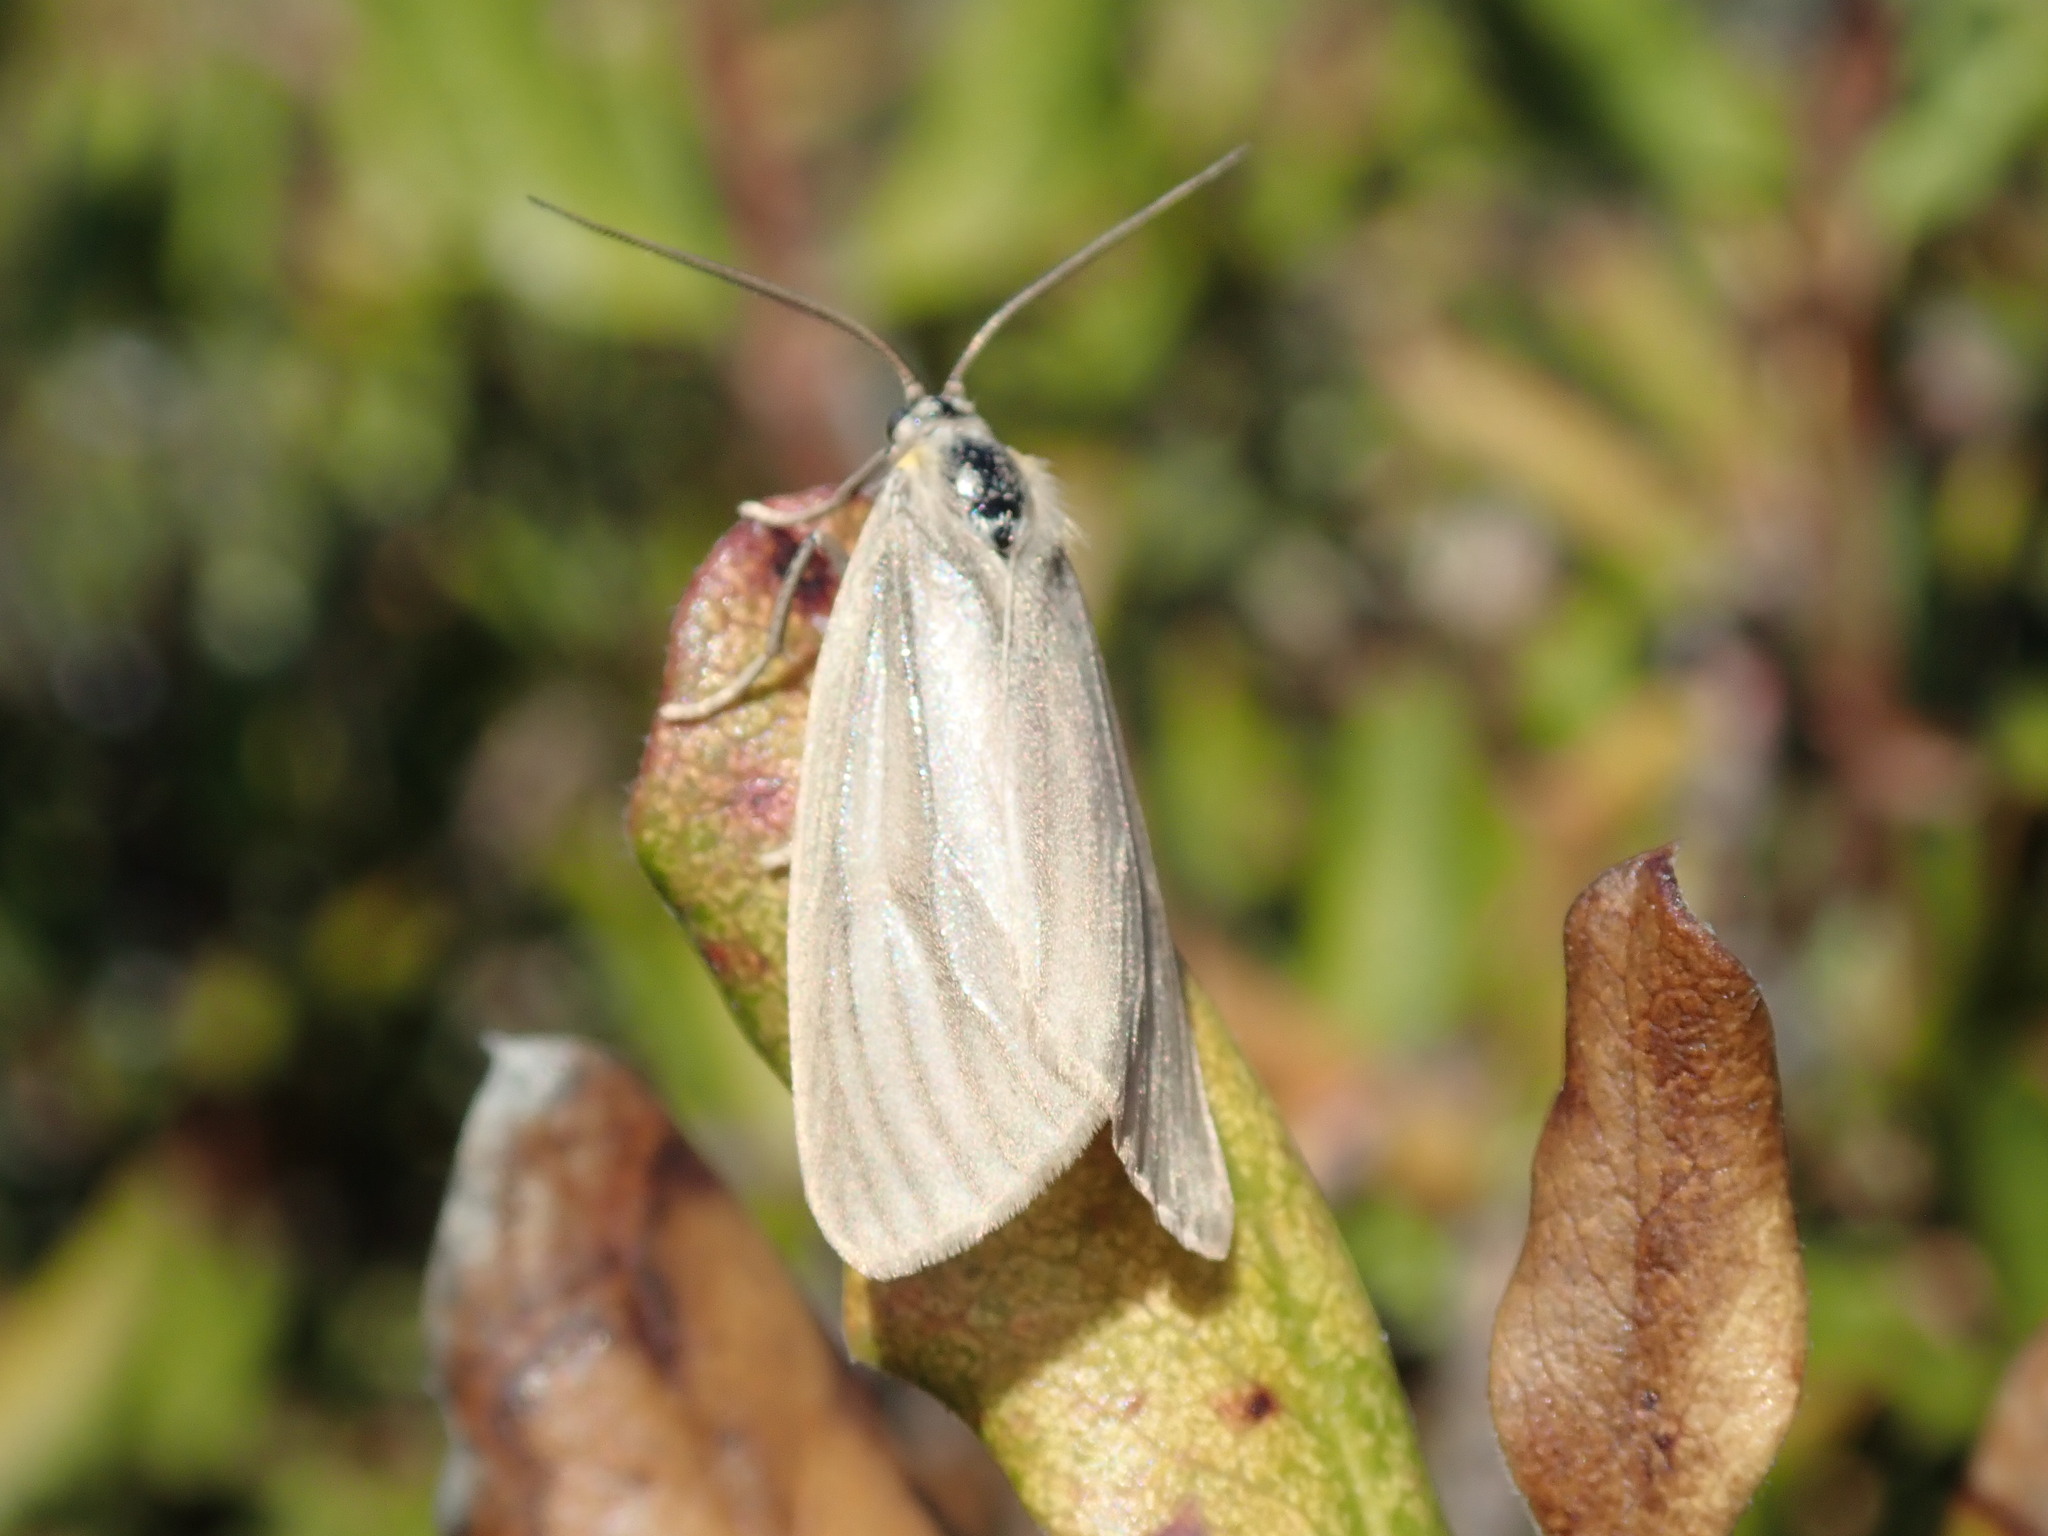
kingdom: Animalia
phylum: Arthropoda
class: Insecta
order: Lepidoptera
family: Notodontidae
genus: Phryganidia
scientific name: Phryganidia californica
